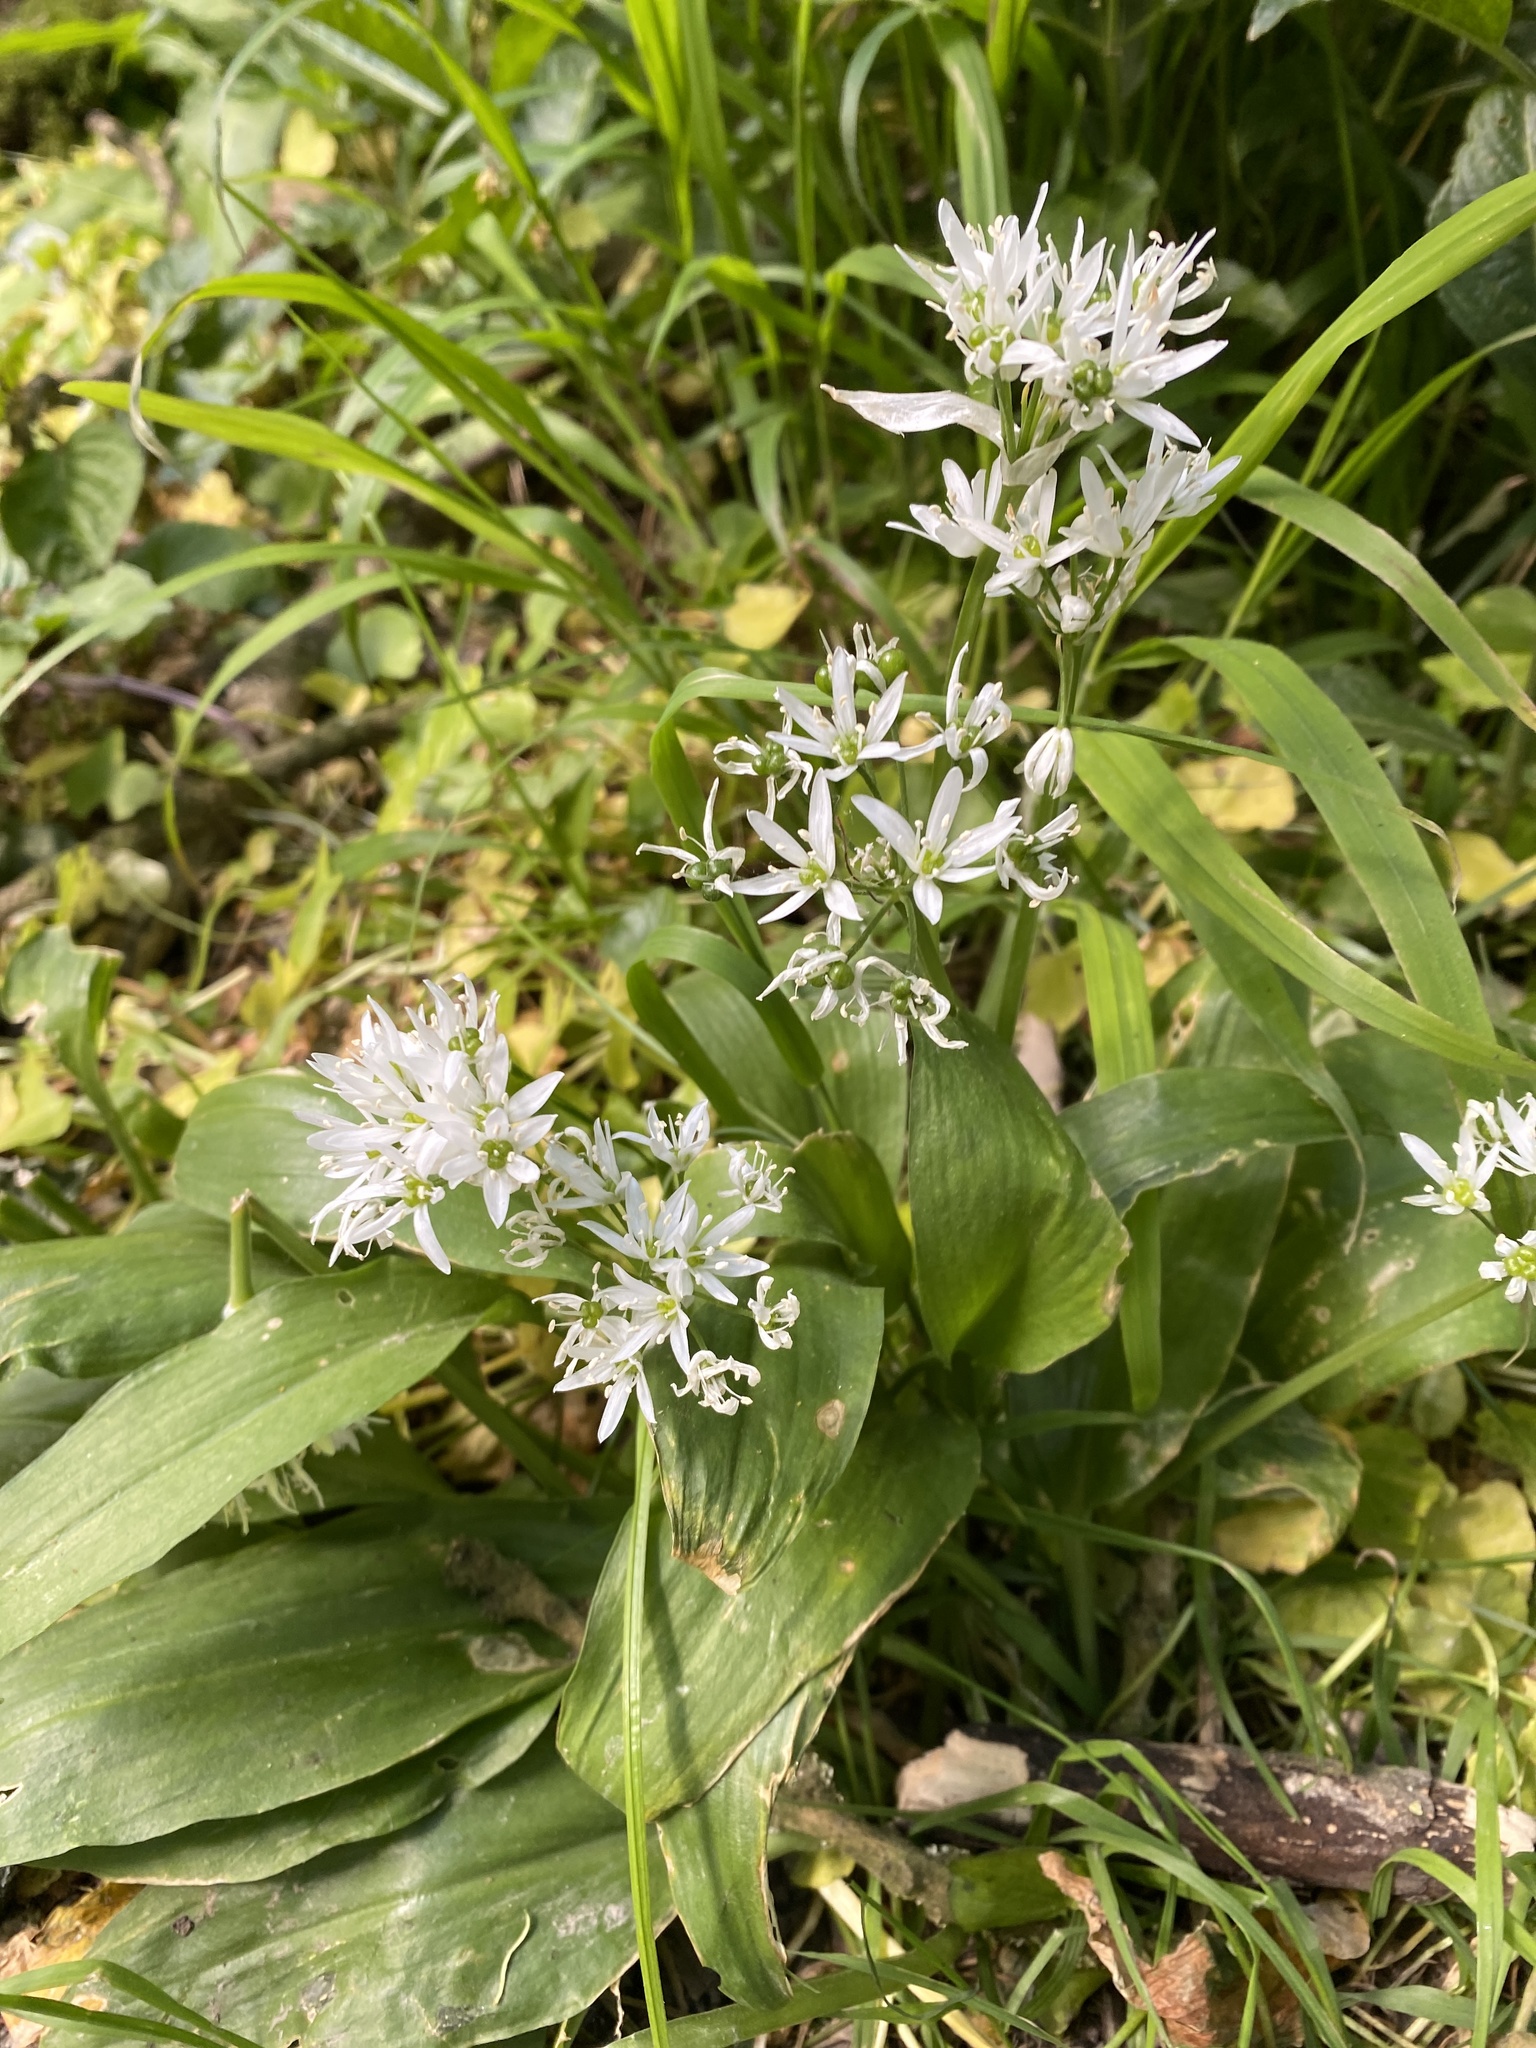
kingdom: Plantae
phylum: Tracheophyta
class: Liliopsida
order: Asparagales
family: Amaryllidaceae
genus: Allium
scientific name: Allium ursinum
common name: Ramsons
